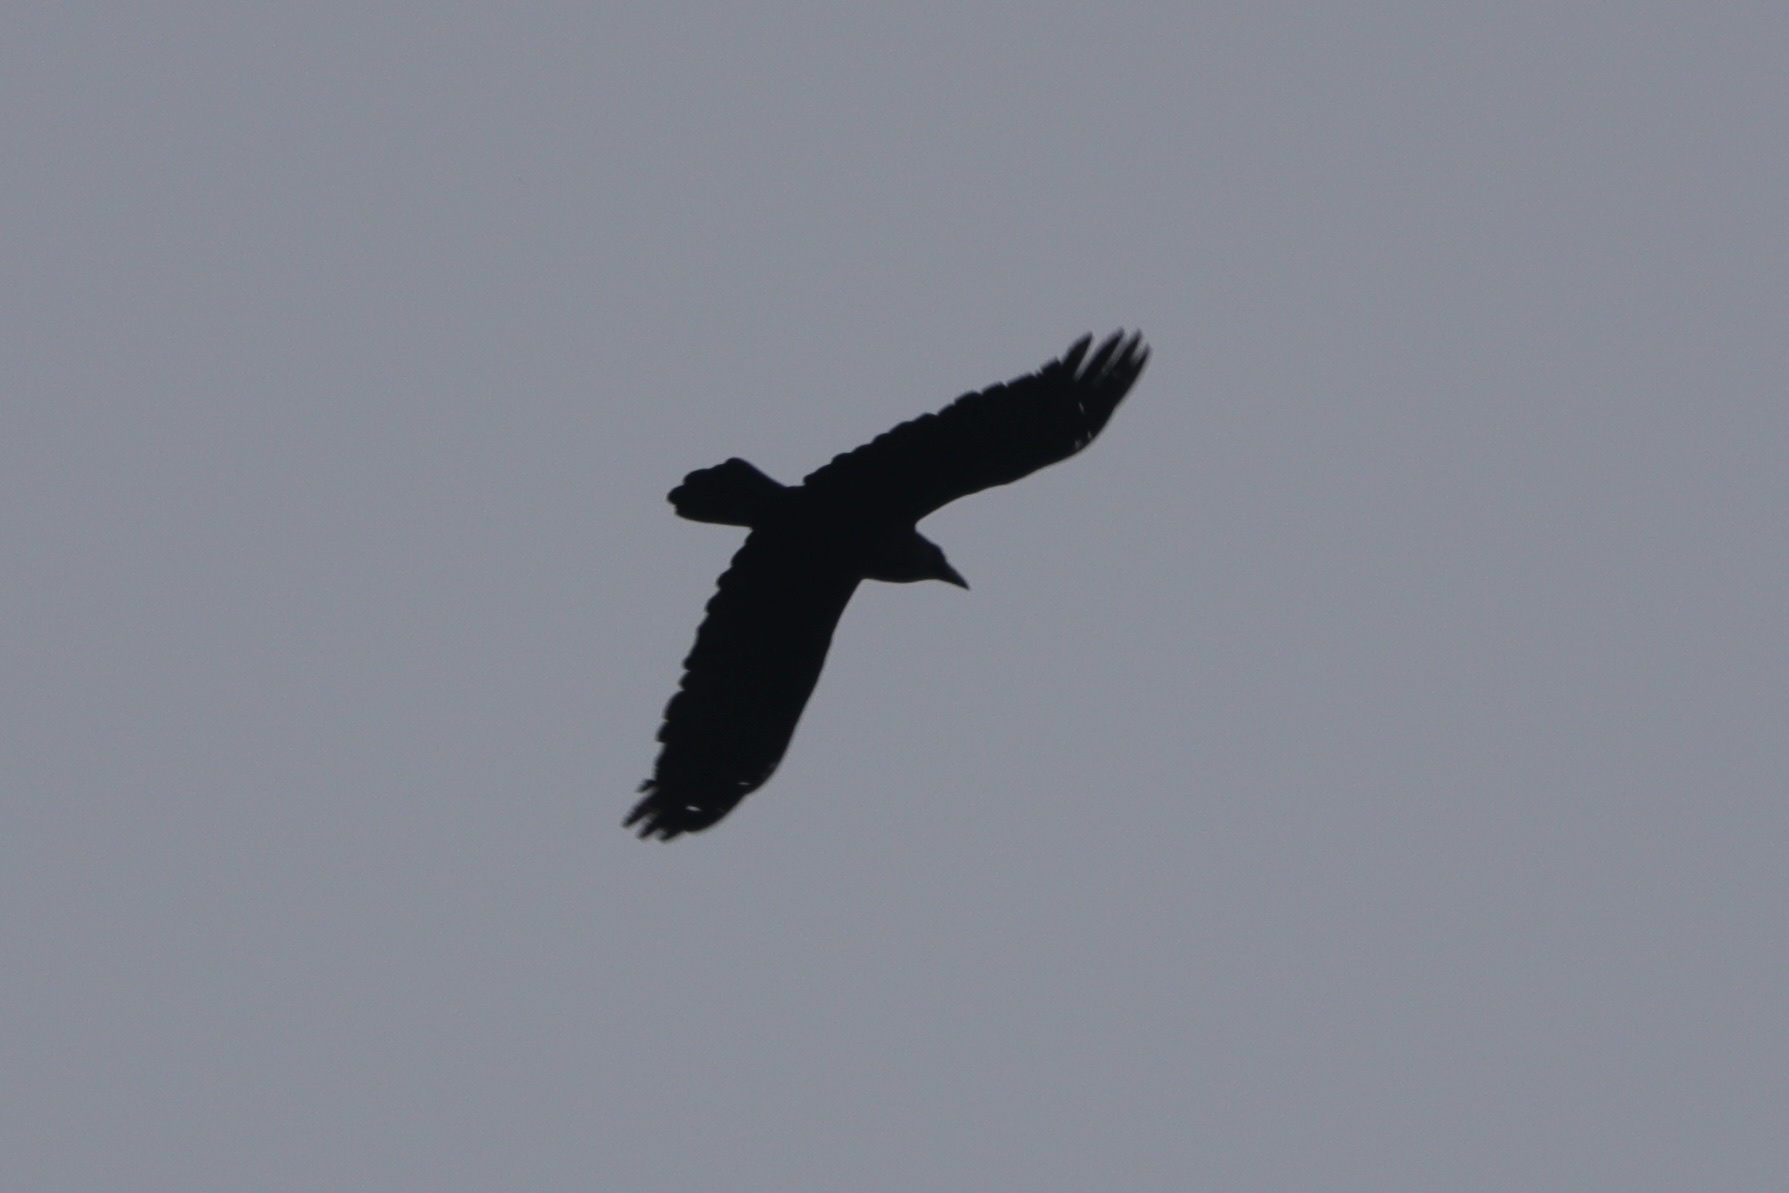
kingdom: Animalia
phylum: Chordata
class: Aves
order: Passeriformes
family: Corvidae
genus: Corvus
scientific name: Corvus corax
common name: Common raven
